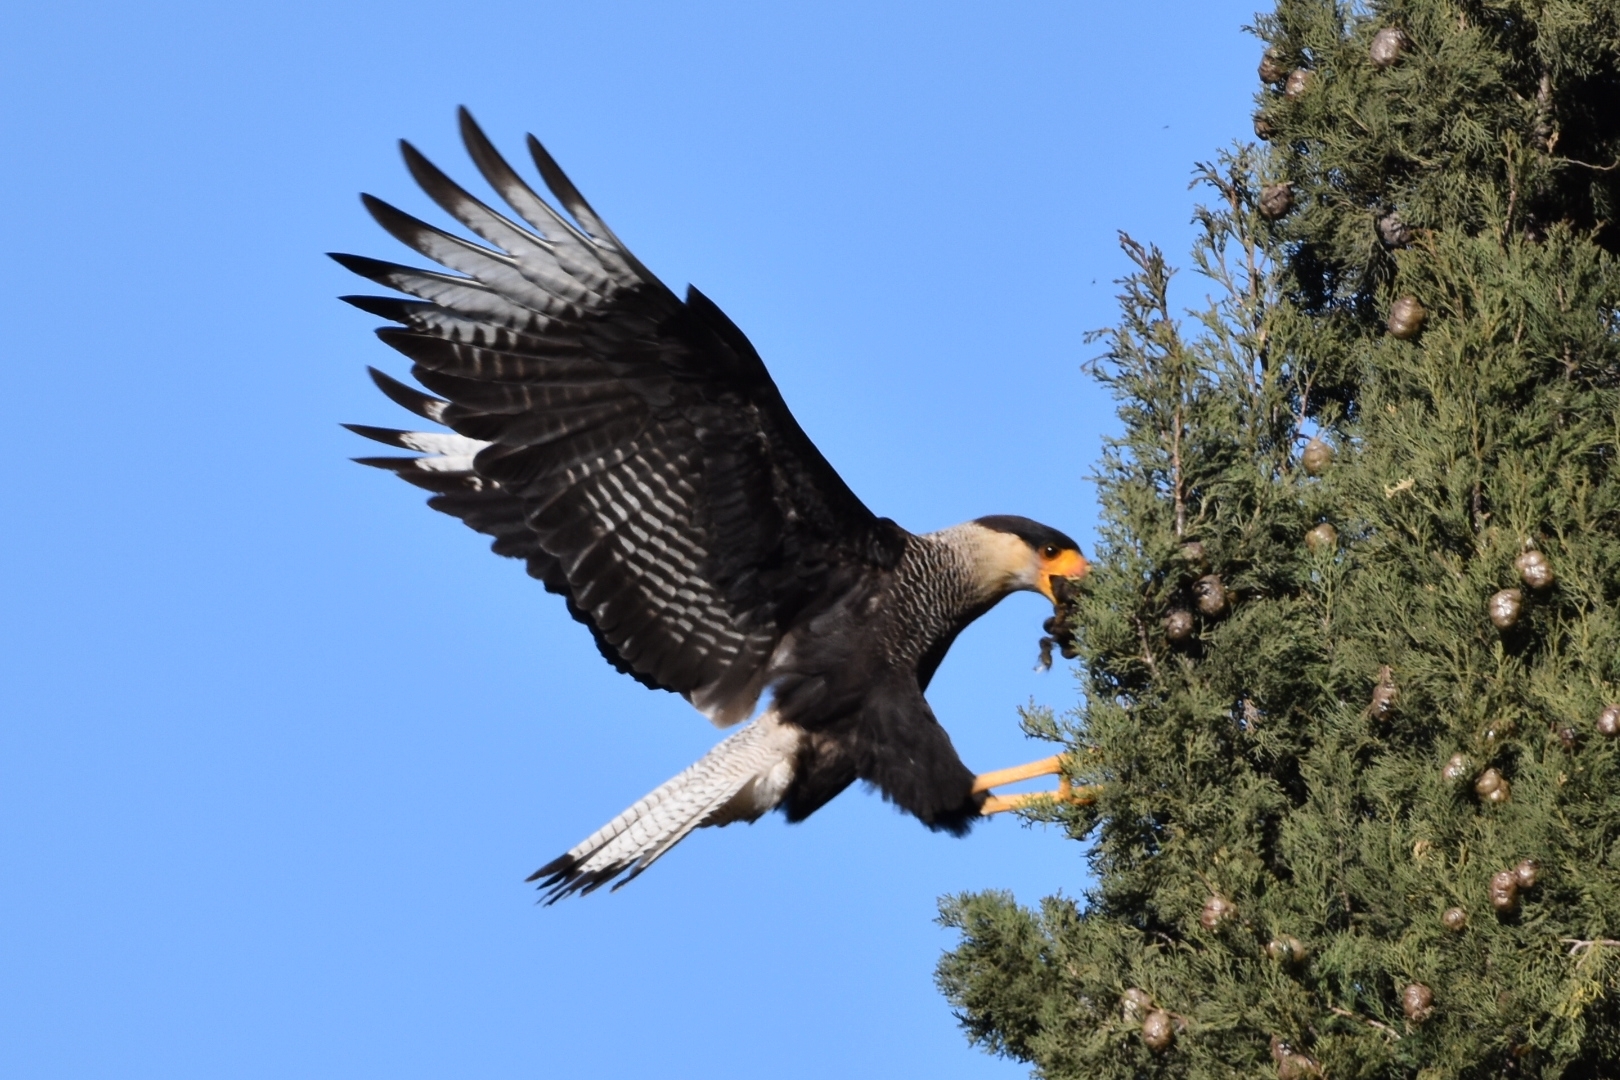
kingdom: Animalia
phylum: Chordata
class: Aves
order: Falconiformes
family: Falconidae
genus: Caracara
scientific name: Caracara plancus
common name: Southern caracara
